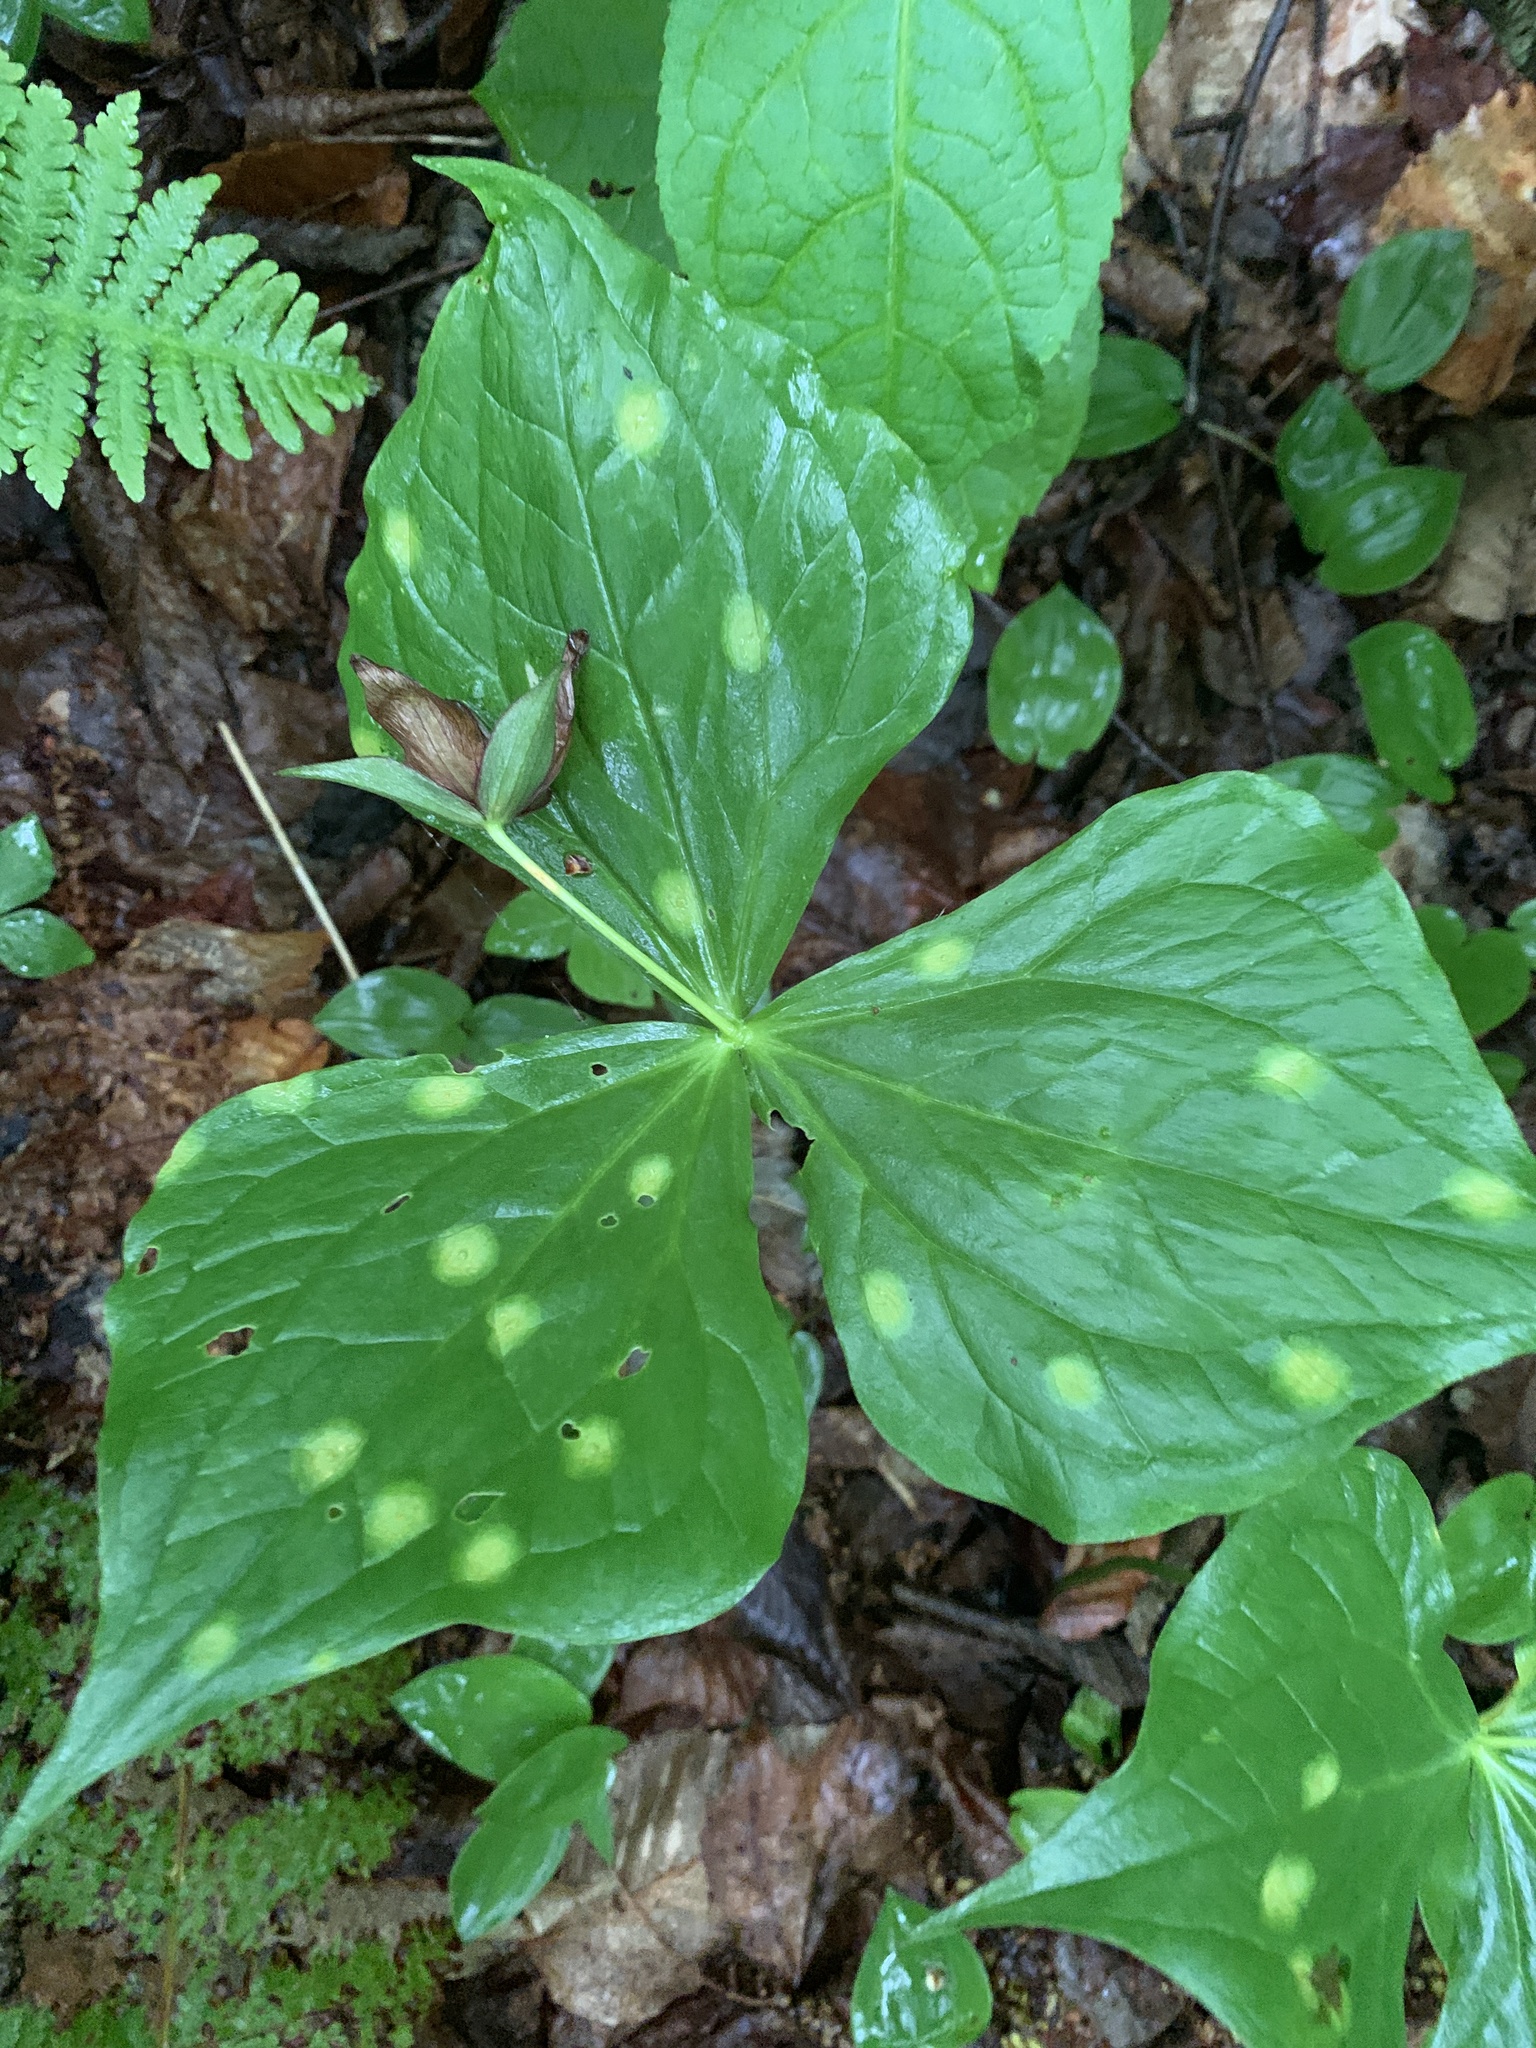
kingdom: Plantae
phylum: Tracheophyta
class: Liliopsida
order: Liliales
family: Melanthiaceae
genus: Trillium
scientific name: Trillium erectum
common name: Purple trillium
